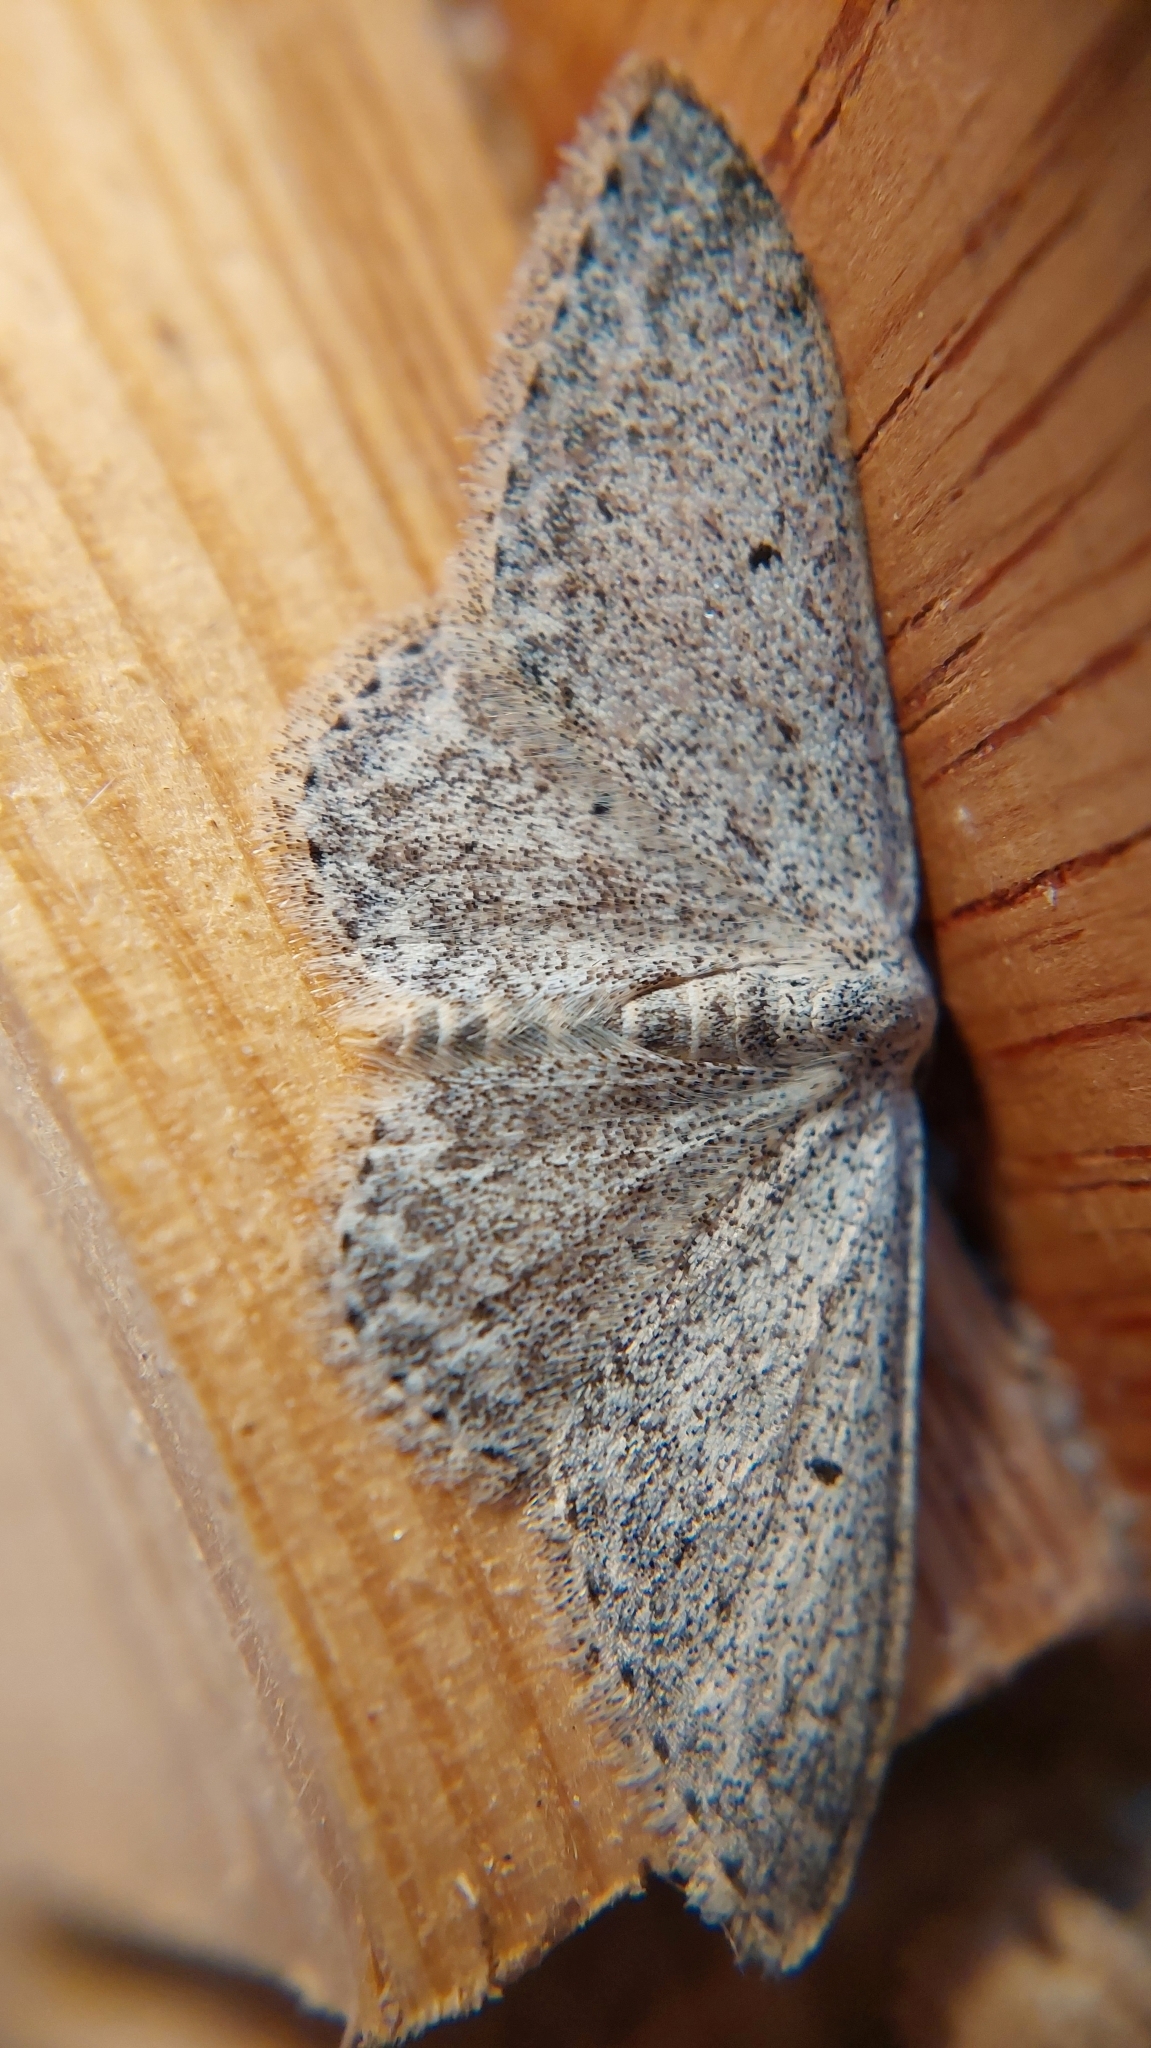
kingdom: Animalia
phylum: Arthropoda
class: Insecta
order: Lepidoptera
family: Geometridae
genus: Scopula
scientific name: Scopula marginepunctata
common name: Mullein wave
